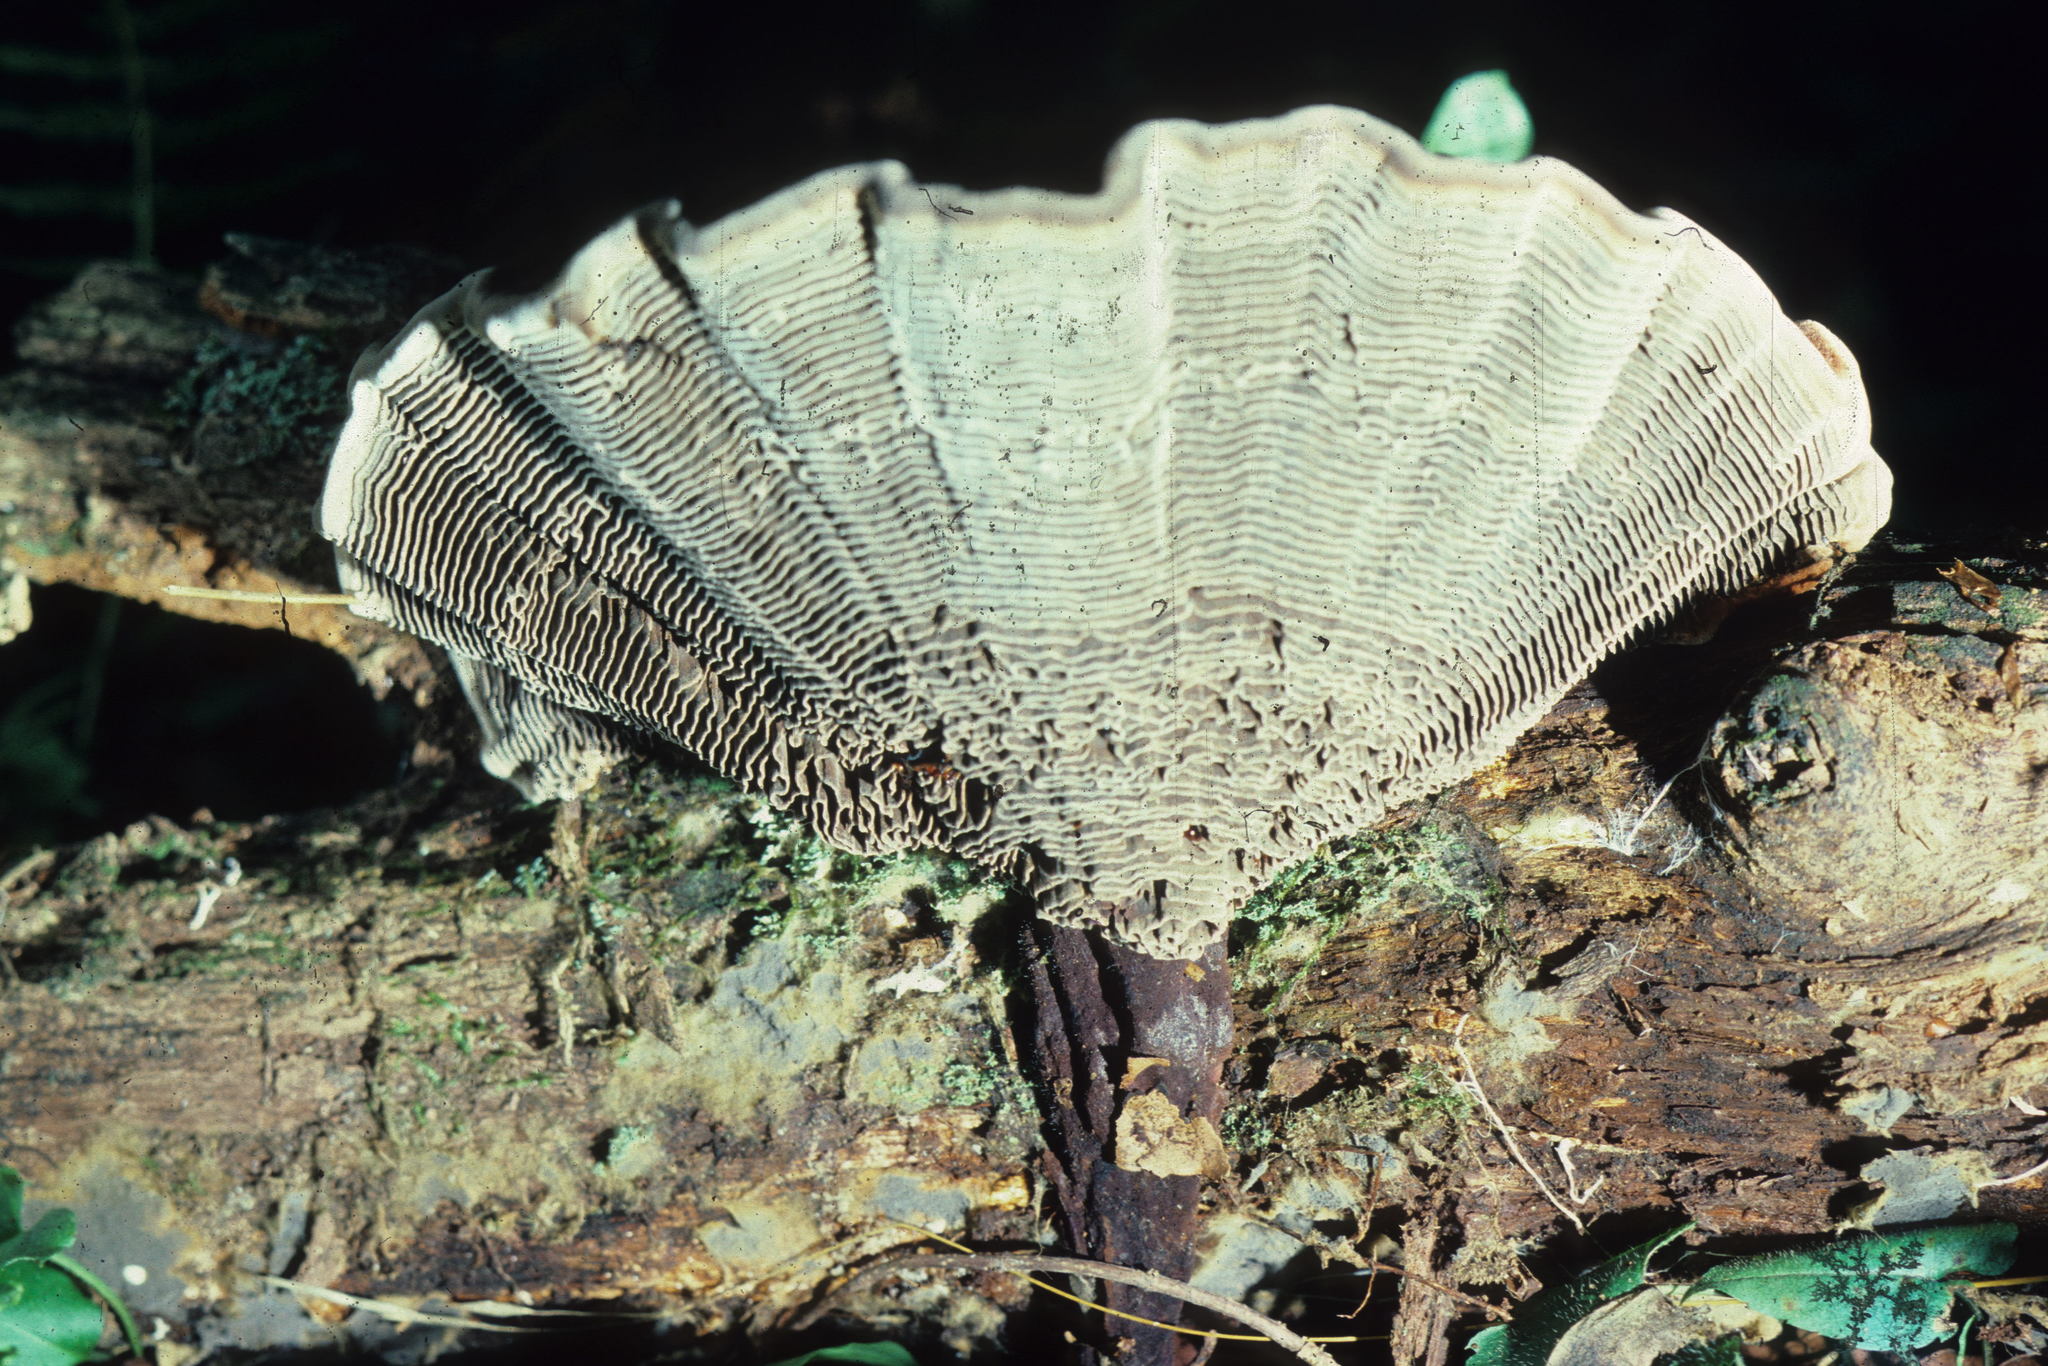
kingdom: Fungi
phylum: Basidiomycota
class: Agaricomycetes
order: Hymenochaetales
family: Hymenochaetaceae
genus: Coltricia
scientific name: Coltricia montagnei
